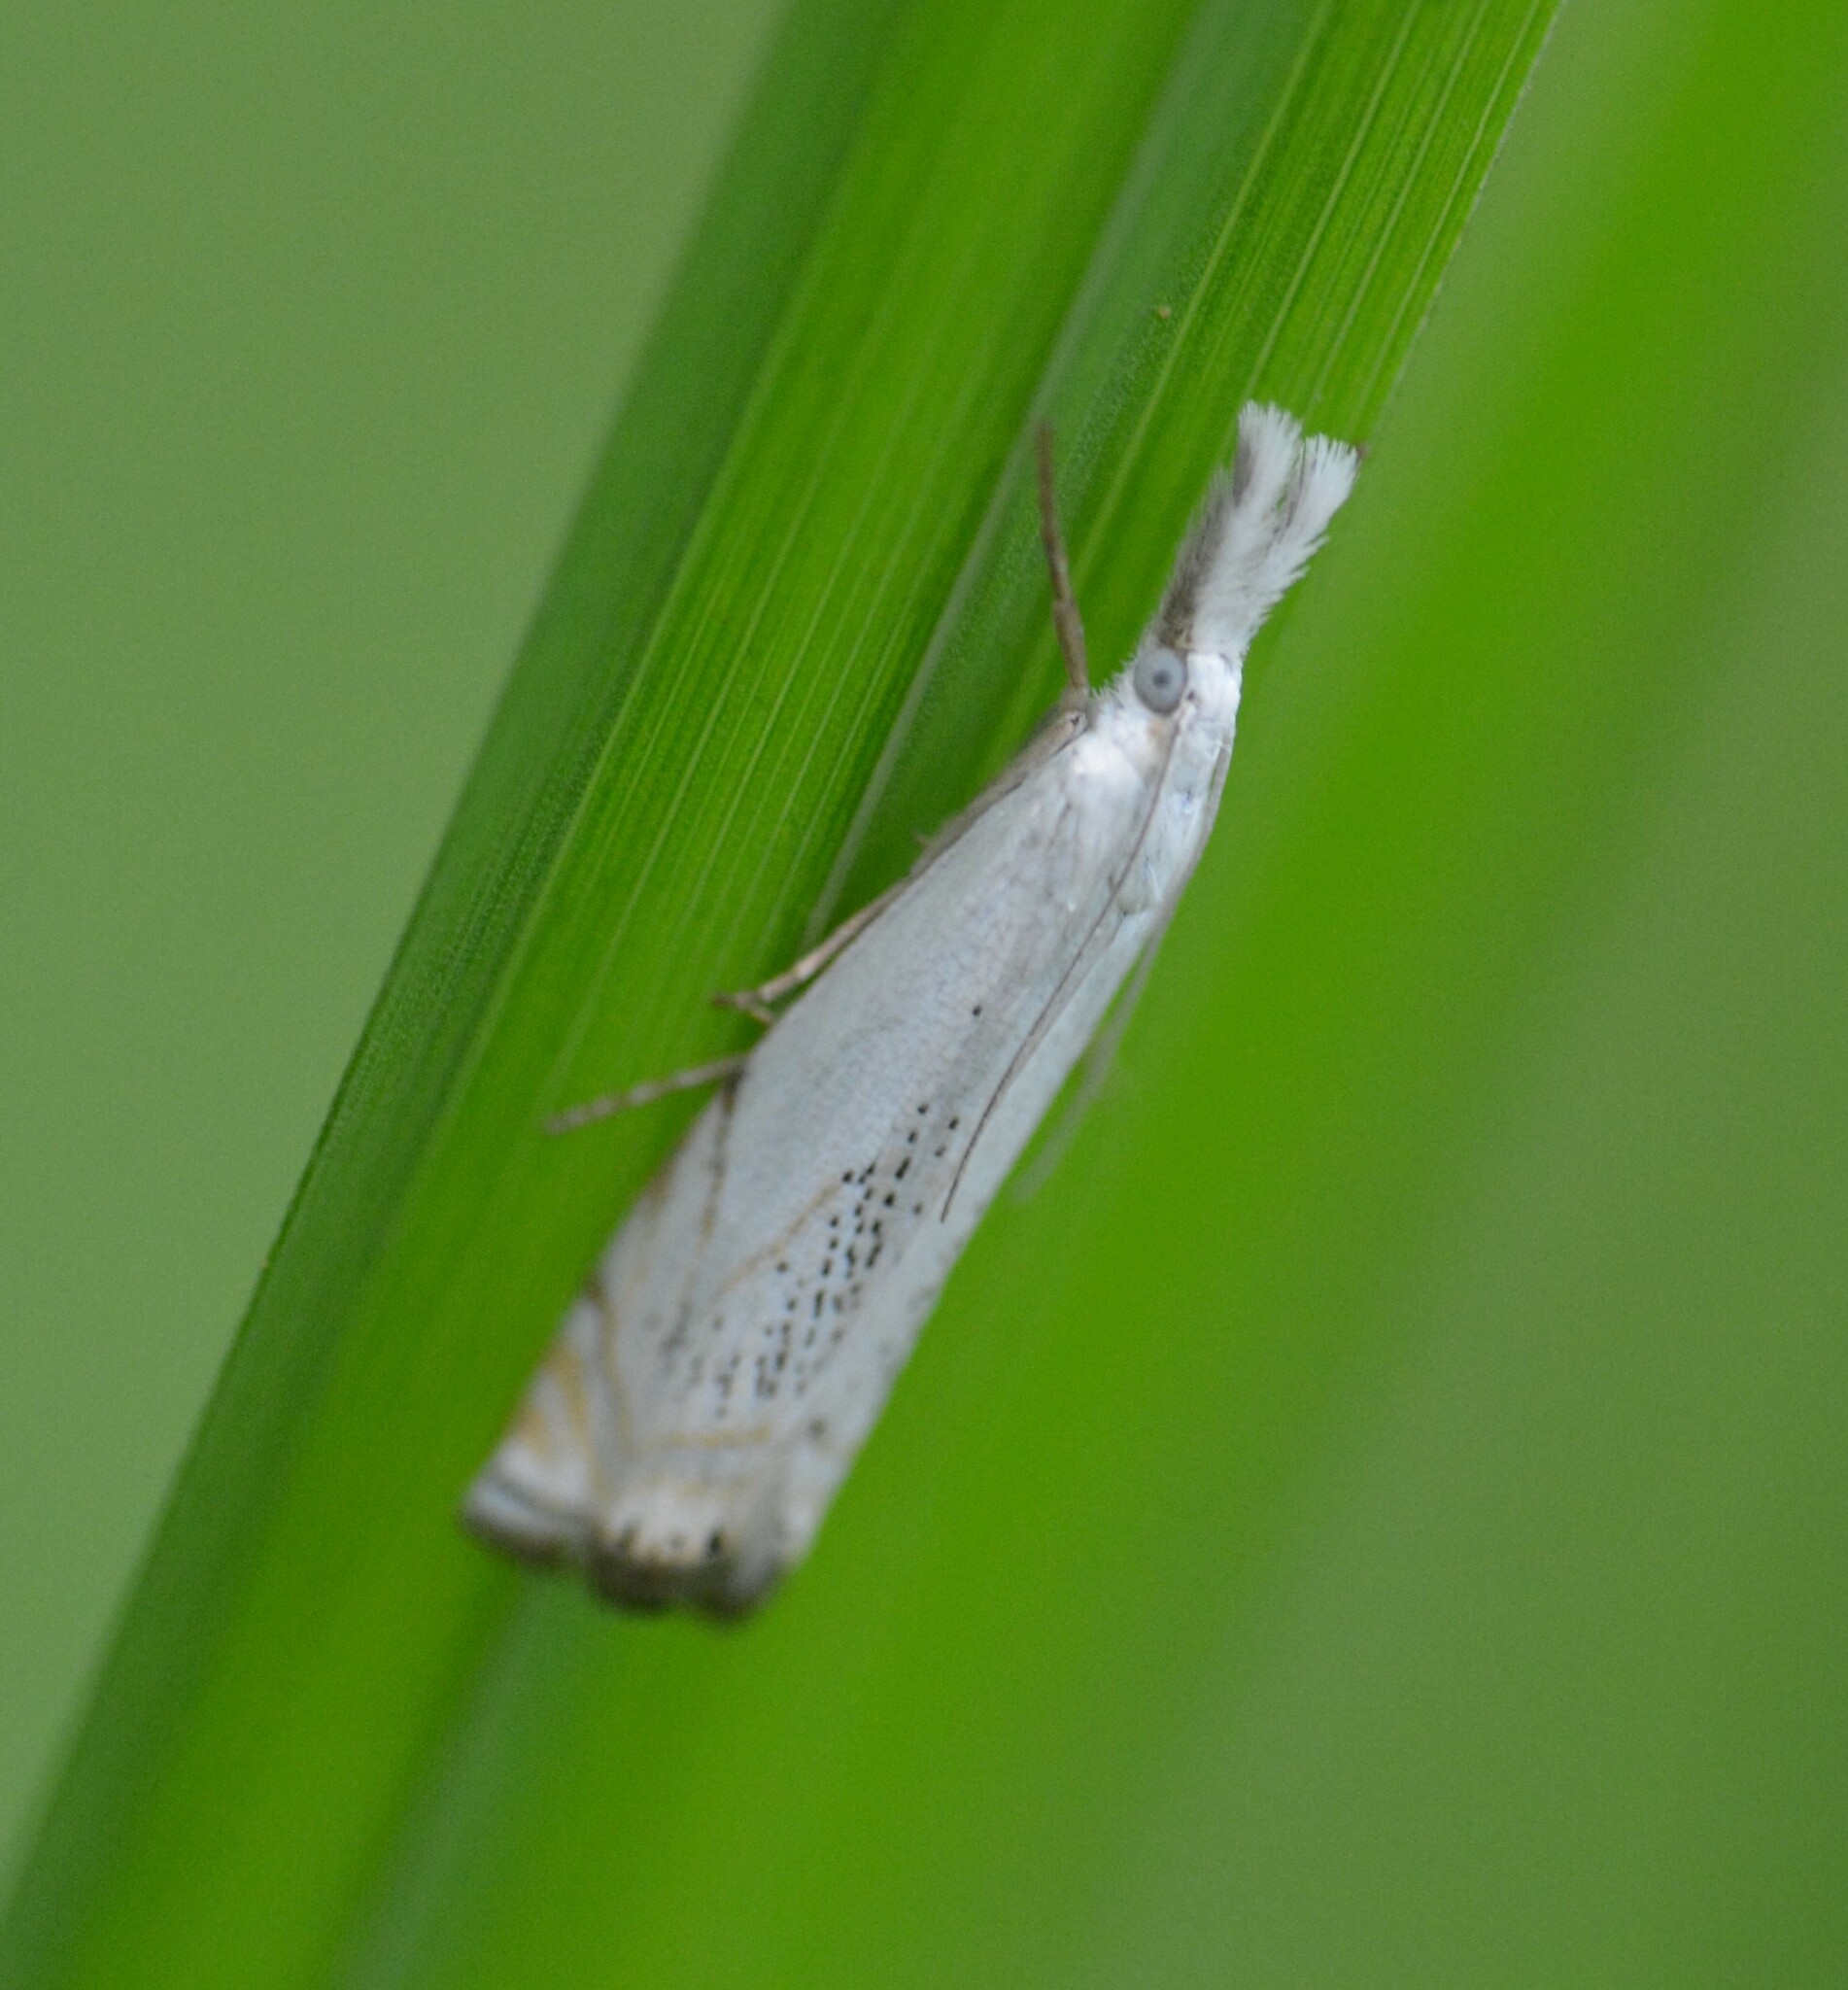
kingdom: Animalia
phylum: Arthropoda
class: Insecta
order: Lepidoptera
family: Crambidae
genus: Crambus
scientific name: Crambus albellus
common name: Small white grass-veneer
